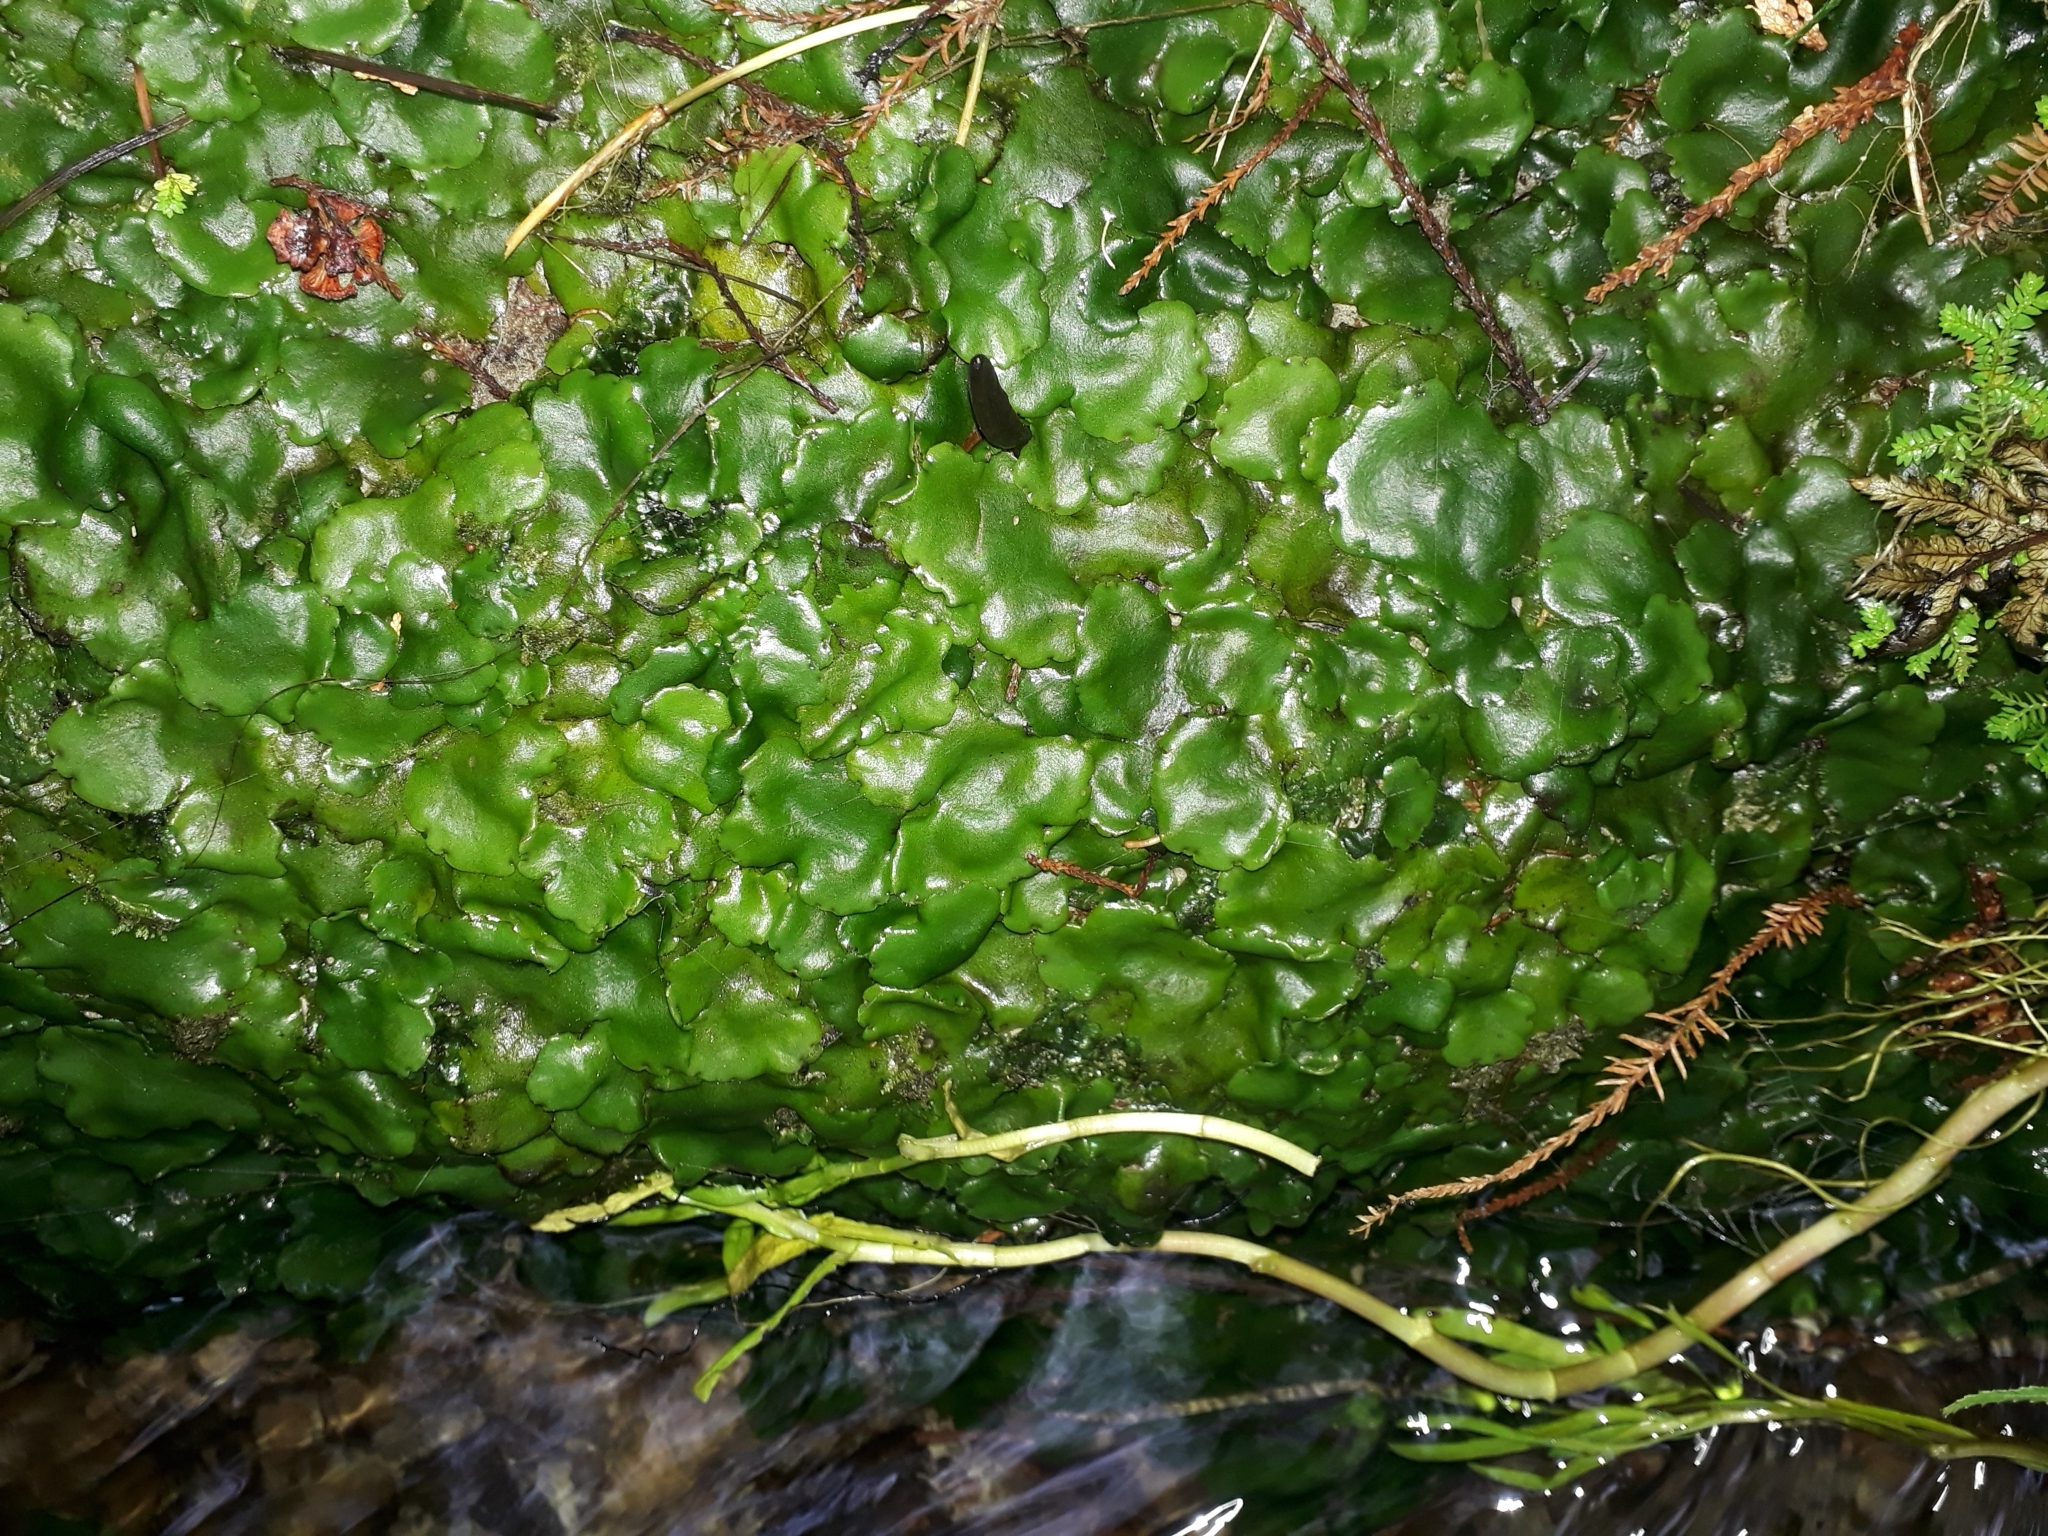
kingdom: Plantae
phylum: Marchantiophyta
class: Marchantiopsida
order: Marchantiales
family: Monocleaceae
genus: Monoclea
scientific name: Monoclea forsteri
